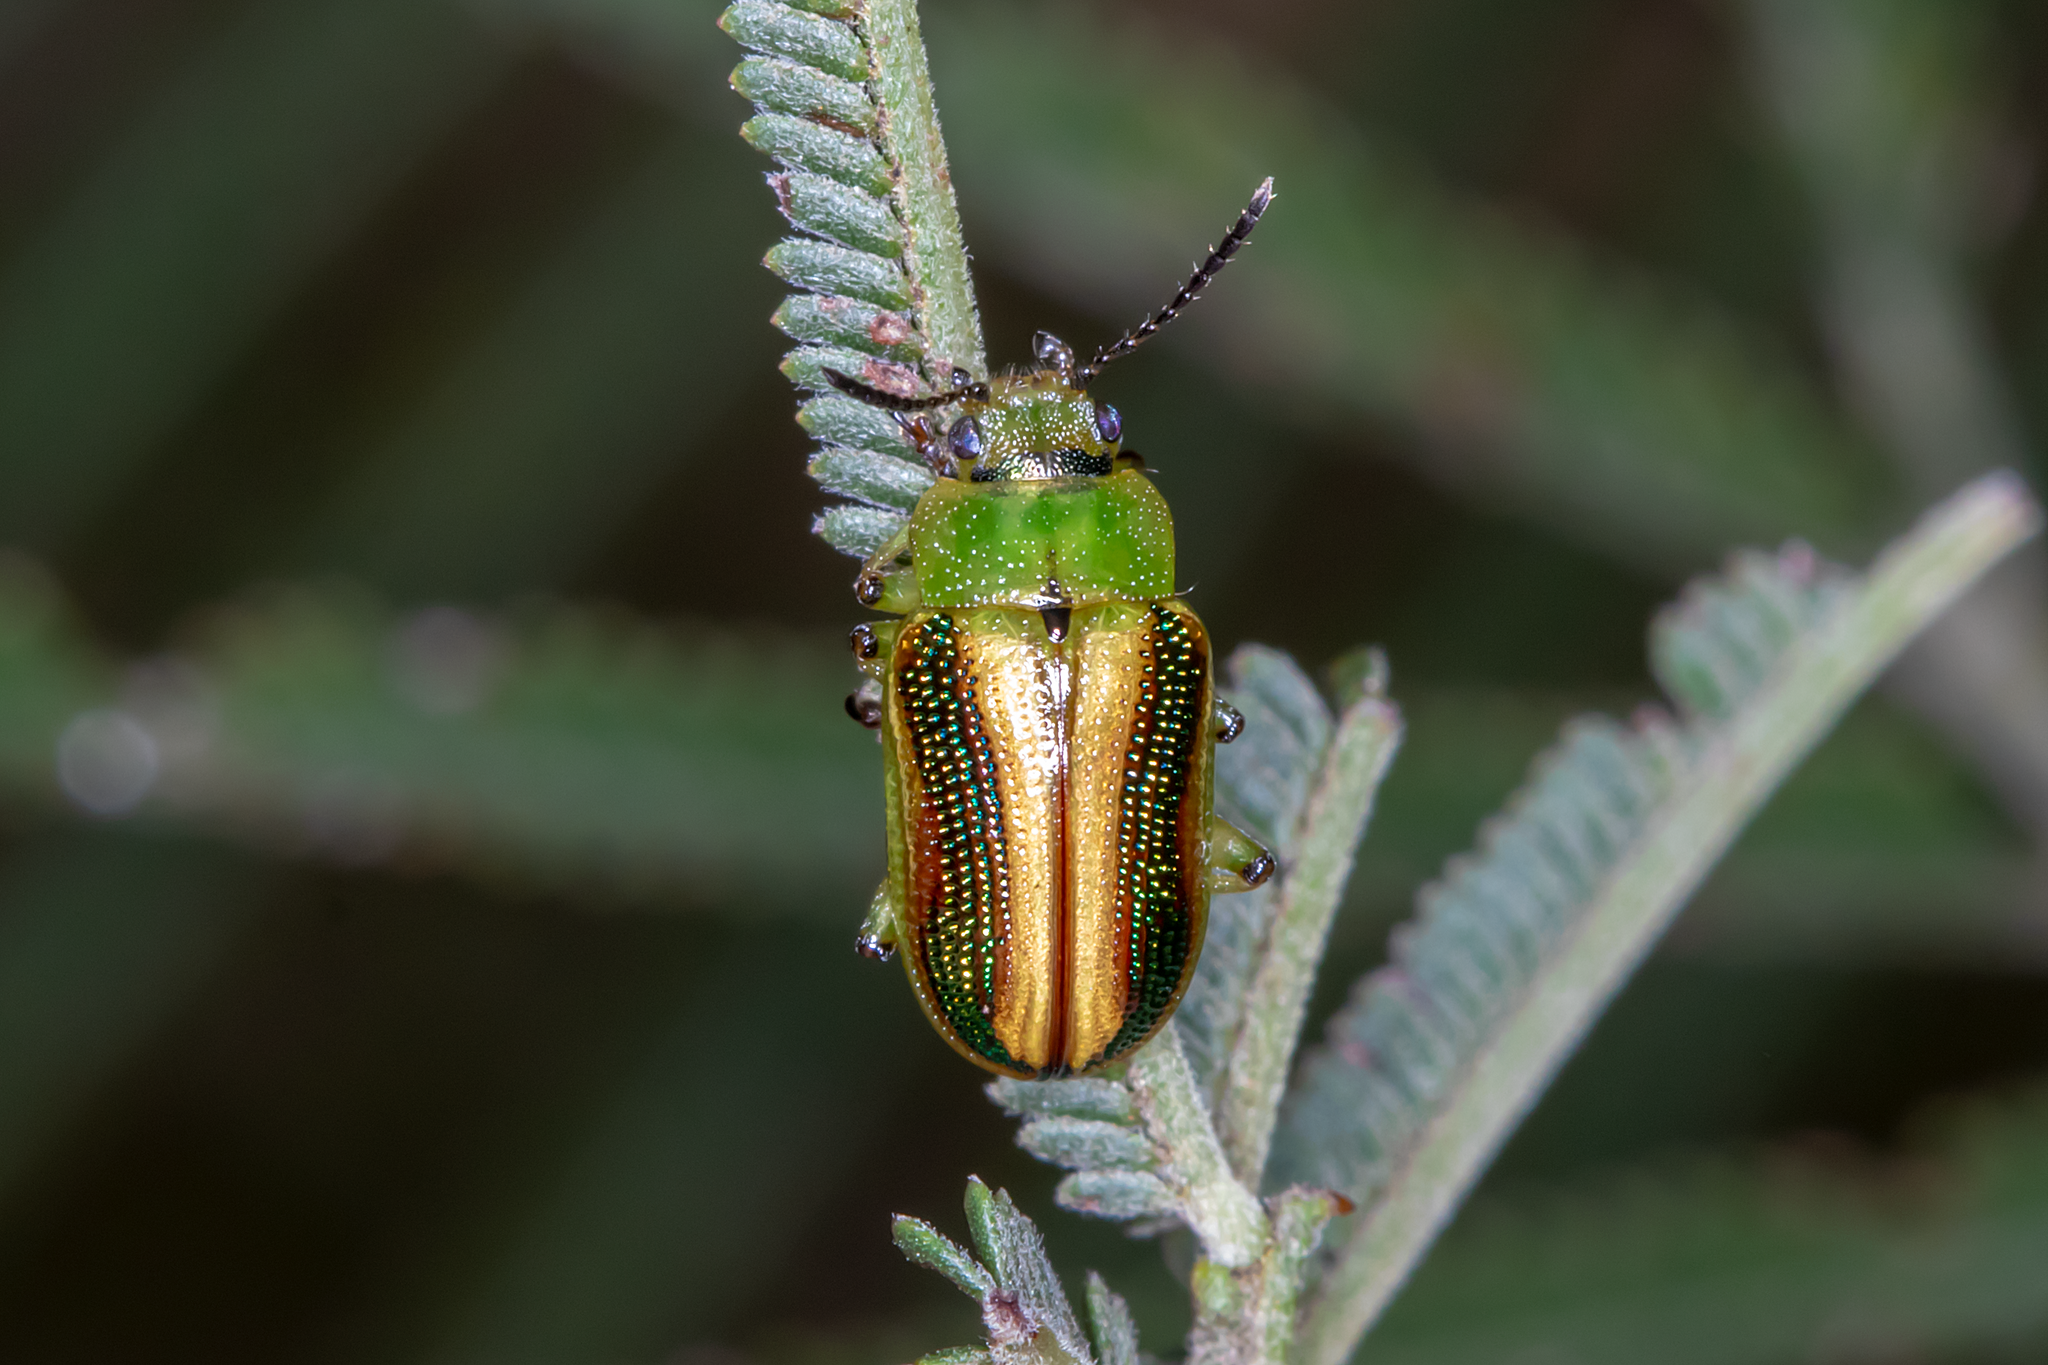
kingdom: Animalia
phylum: Arthropoda
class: Insecta
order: Coleoptera
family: Chrysomelidae
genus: Calomela
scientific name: Calomela
